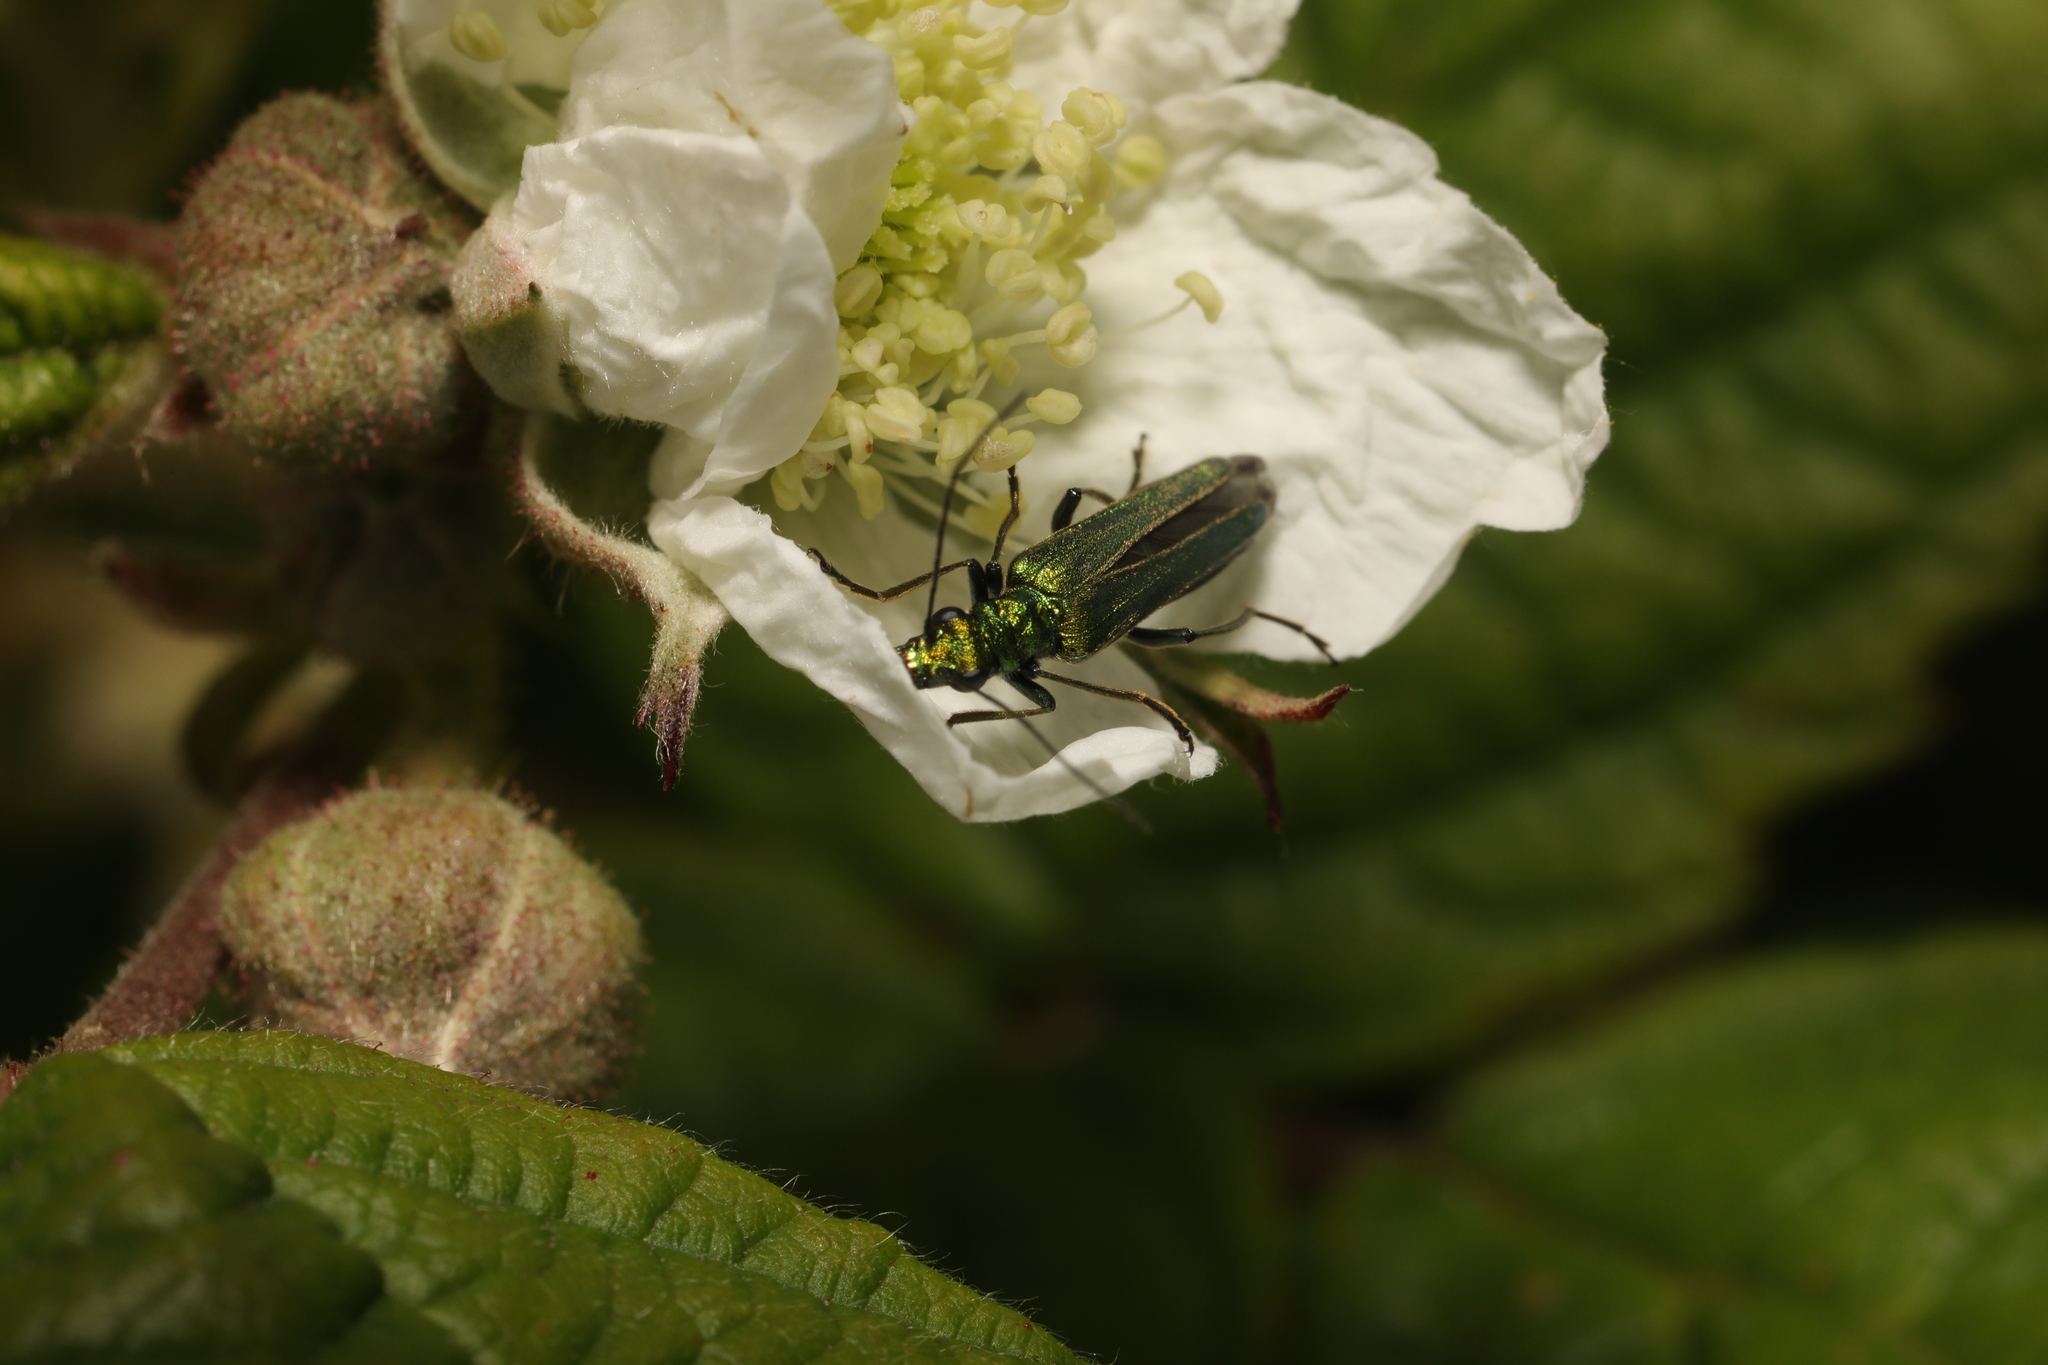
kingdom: Animalia
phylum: Arthropoda
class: Insecta
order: Coleoptera
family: Oedemeridae
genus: Oedemera
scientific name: Oedemera nobilis
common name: Swollen-thighed beetle
